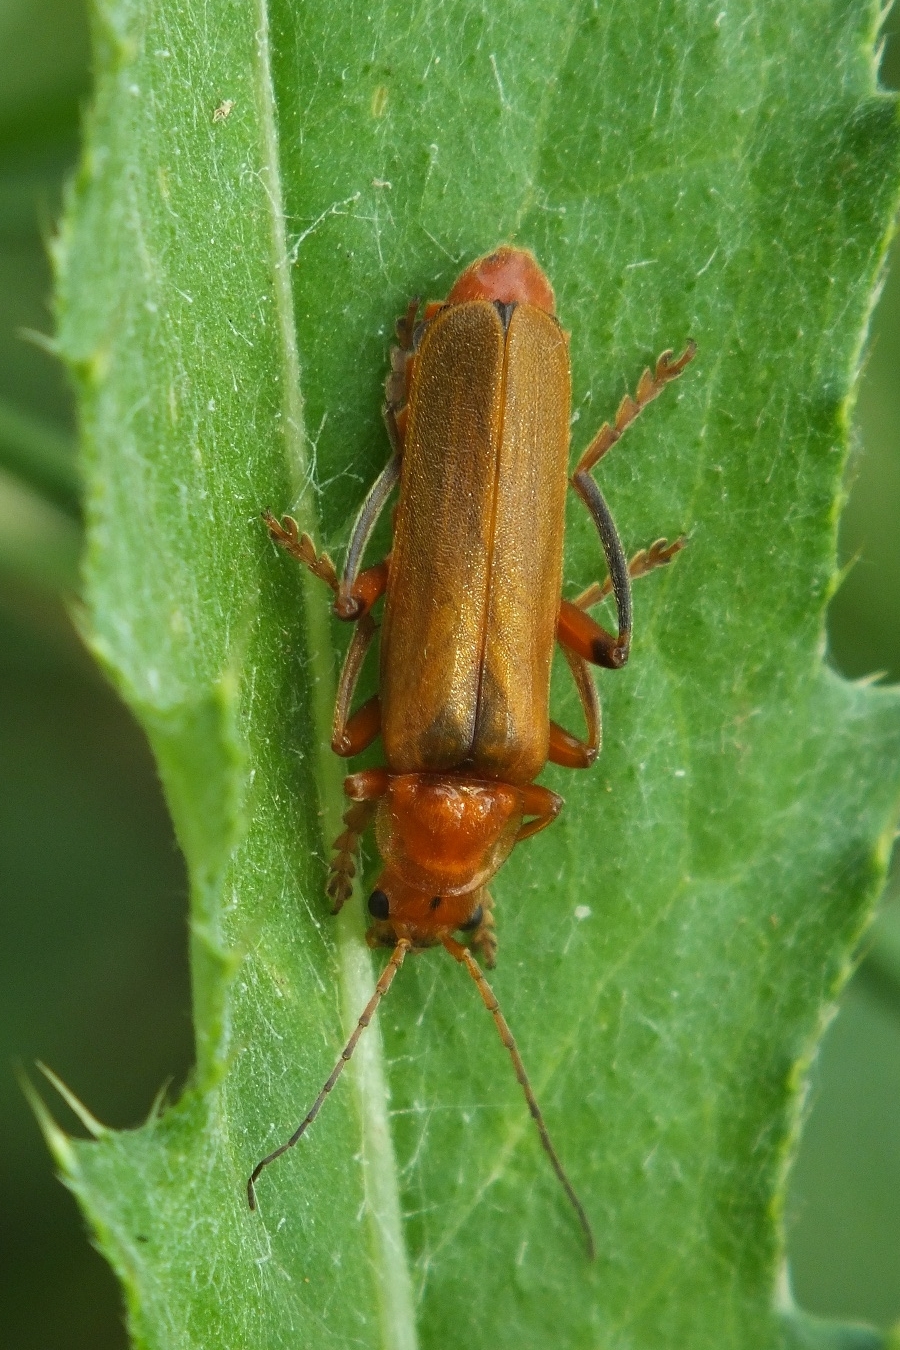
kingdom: Animalia
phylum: Arthropoda
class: Insecta
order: Coleoptera
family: Cantharidae
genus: Cantharis
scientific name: Cantharis livida
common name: Livid soldier beetle
